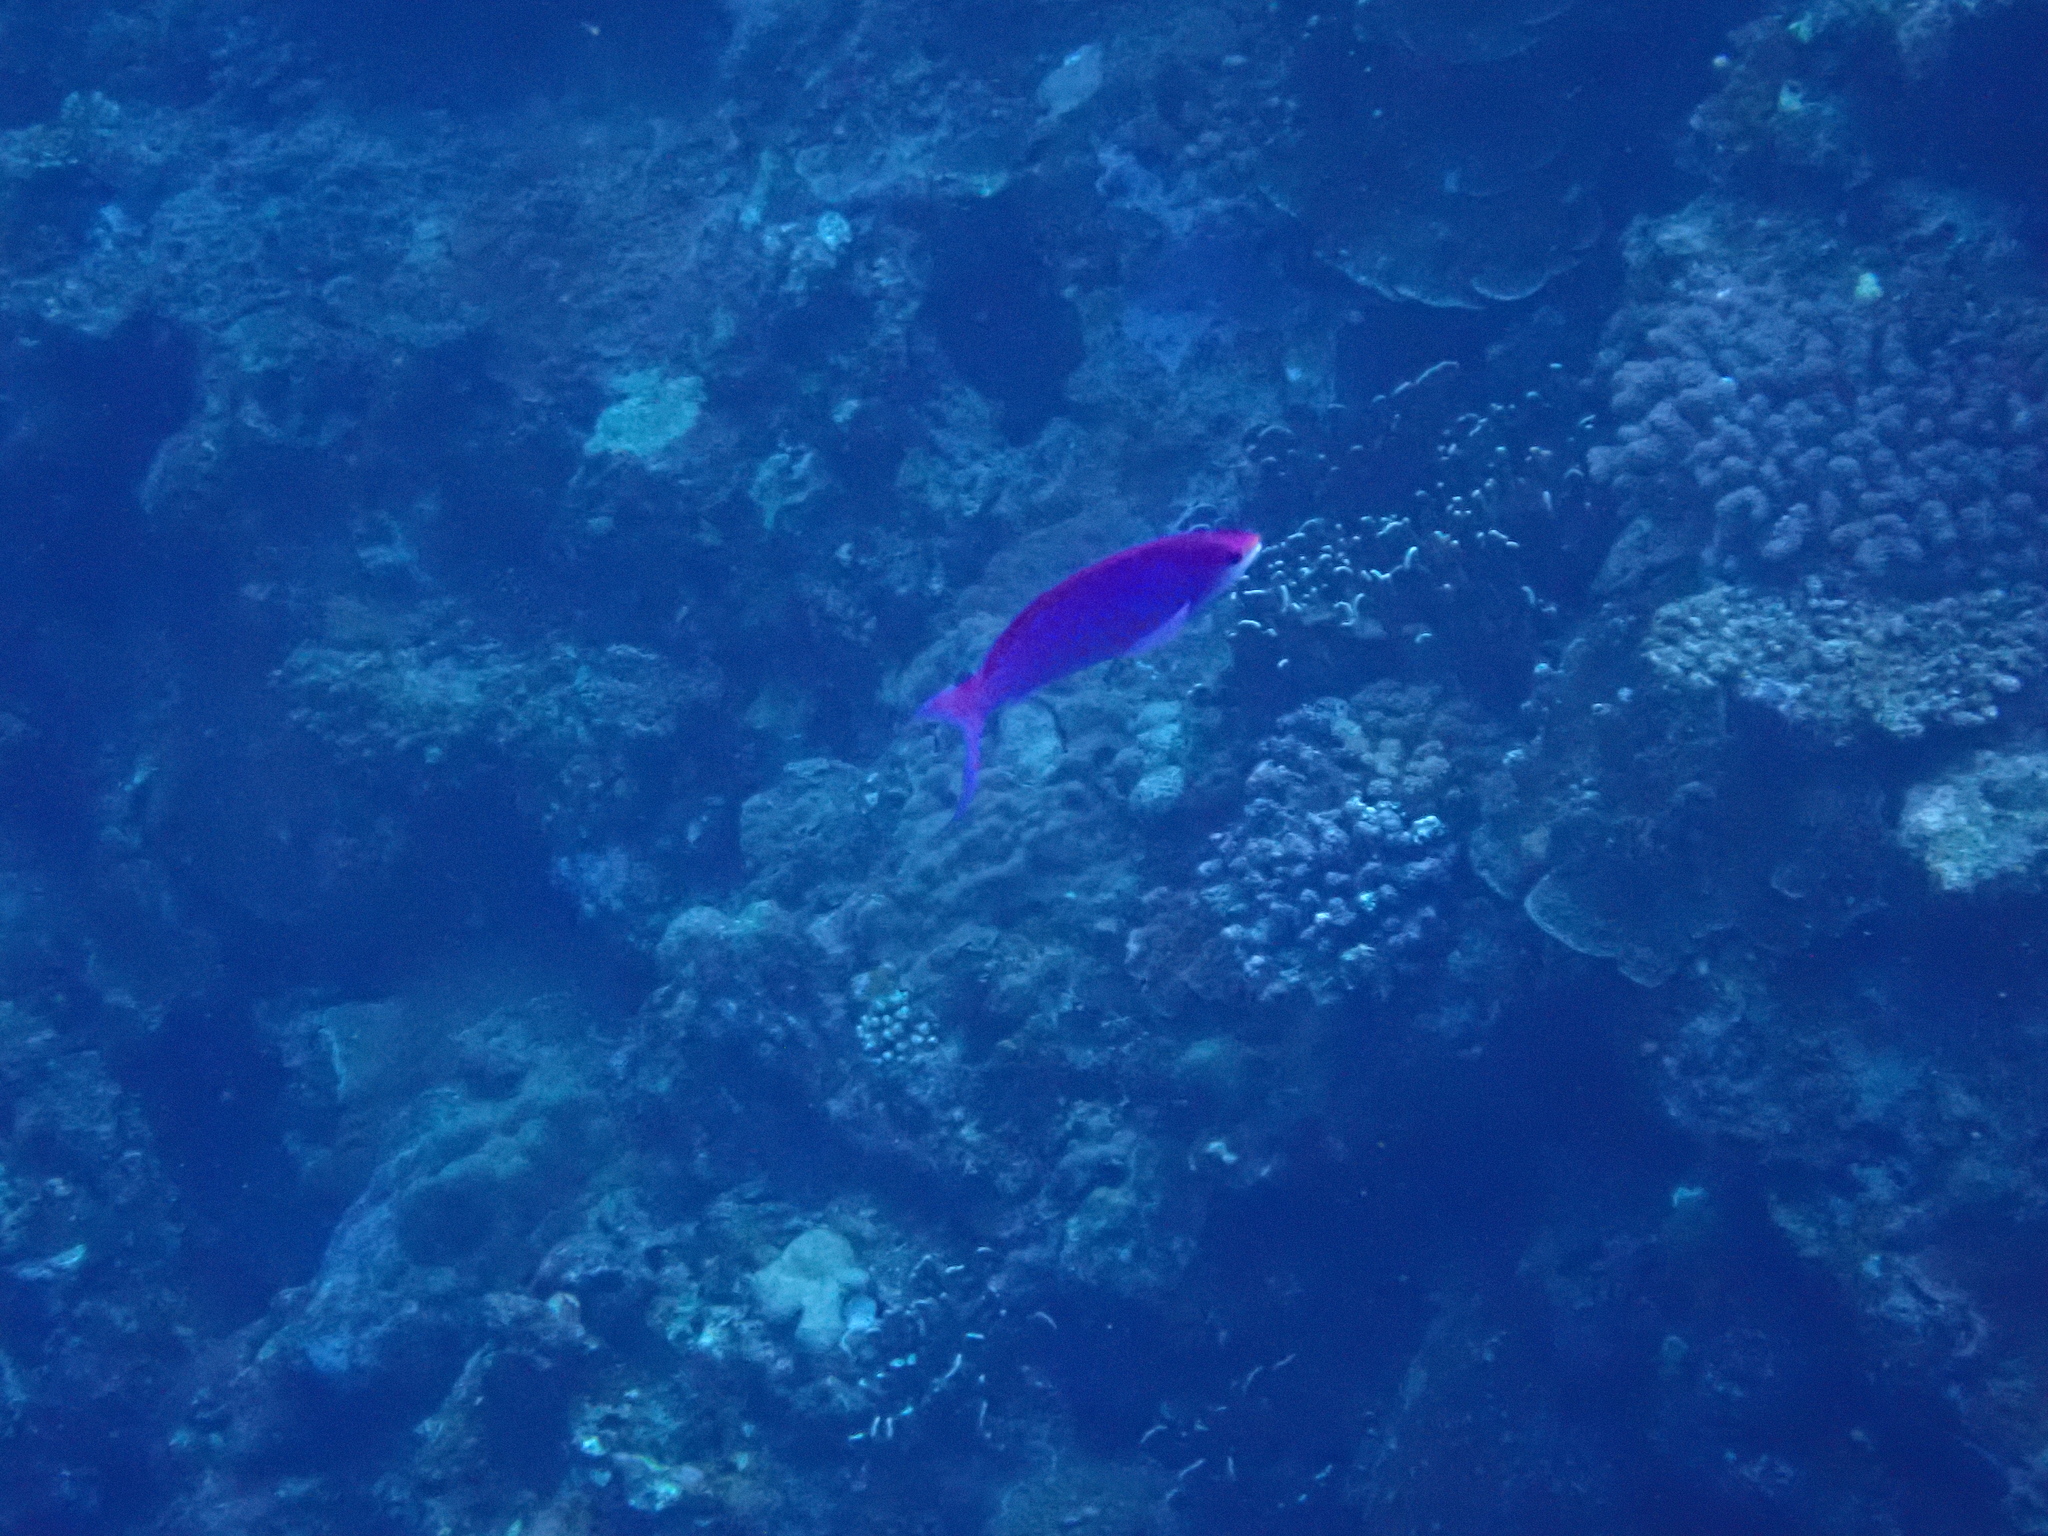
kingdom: Animalia
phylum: Chordata
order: Perciformes
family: Serranidae
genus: Pseudanthias
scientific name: Pseudanthias pascalus
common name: Amethyst anthias
